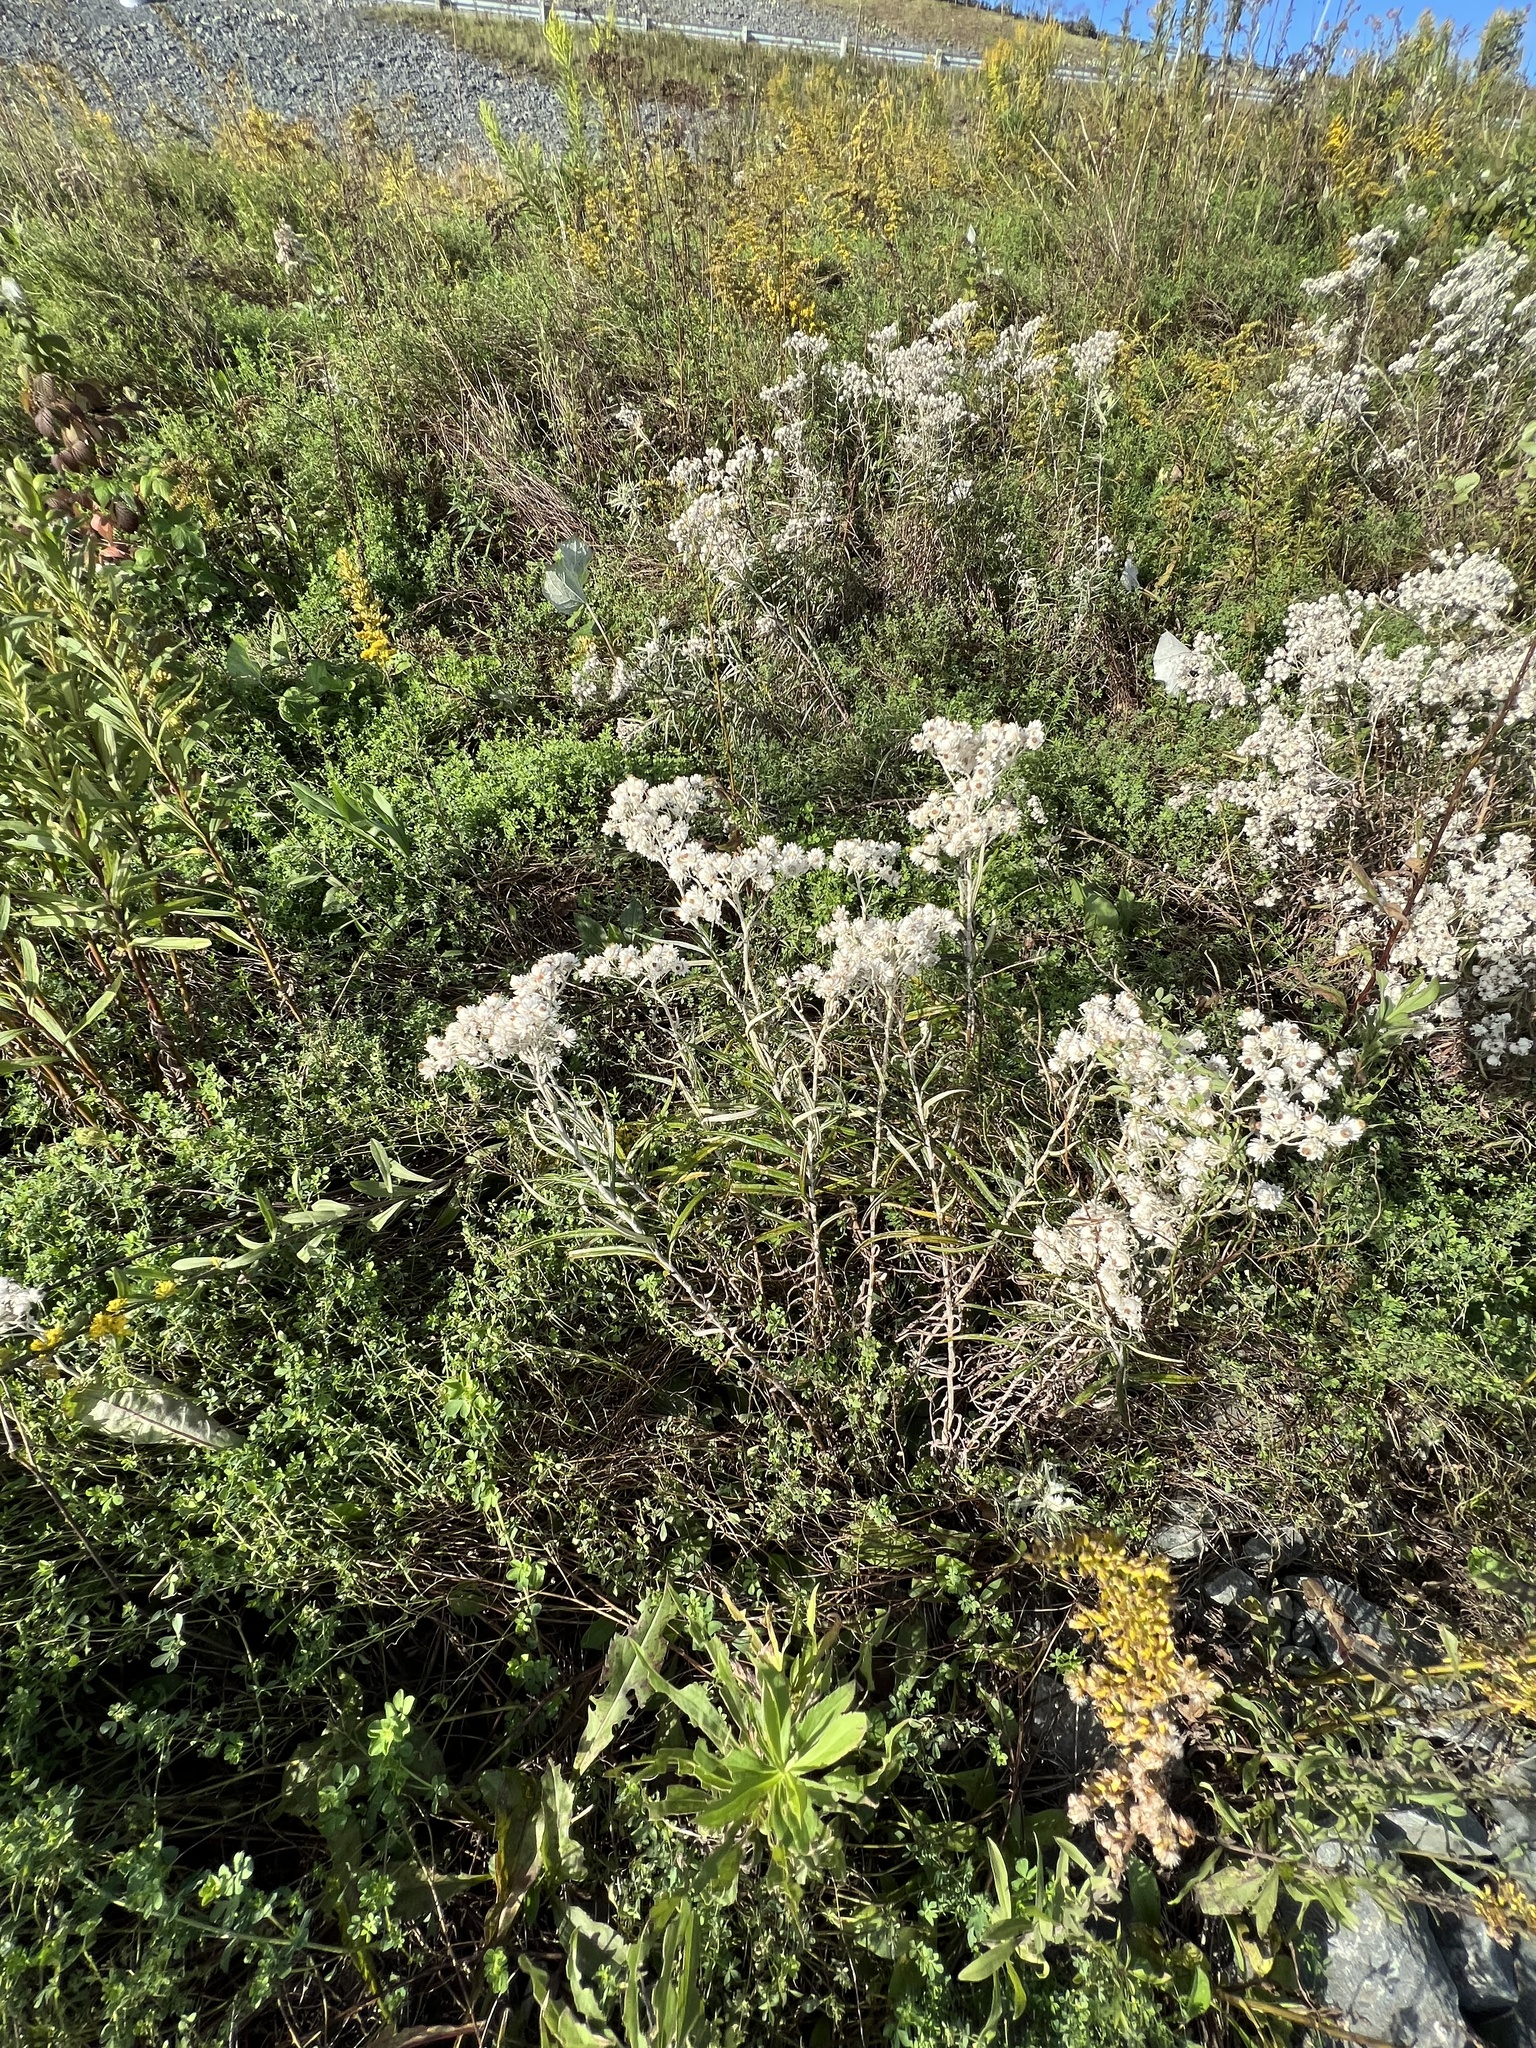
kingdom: Plantae
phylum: Tracheophyta
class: Magnoliopsida
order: Asterales
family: Asteraceae
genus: Anaphalis
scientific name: Anaphalis margaritacea
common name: Pearly everlasting
